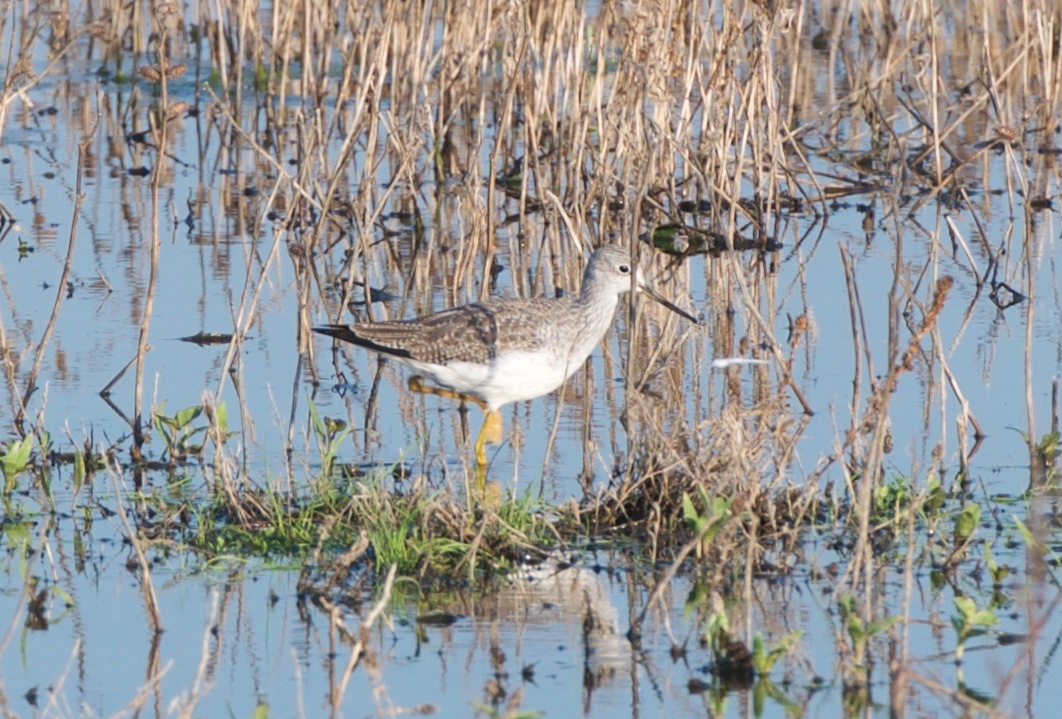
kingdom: Animalia
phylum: Chordata
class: Aves
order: Charadriiformes
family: Scolopacidae
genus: Tringa
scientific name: Tringa melanoleuca
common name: Greater yellowlegs
